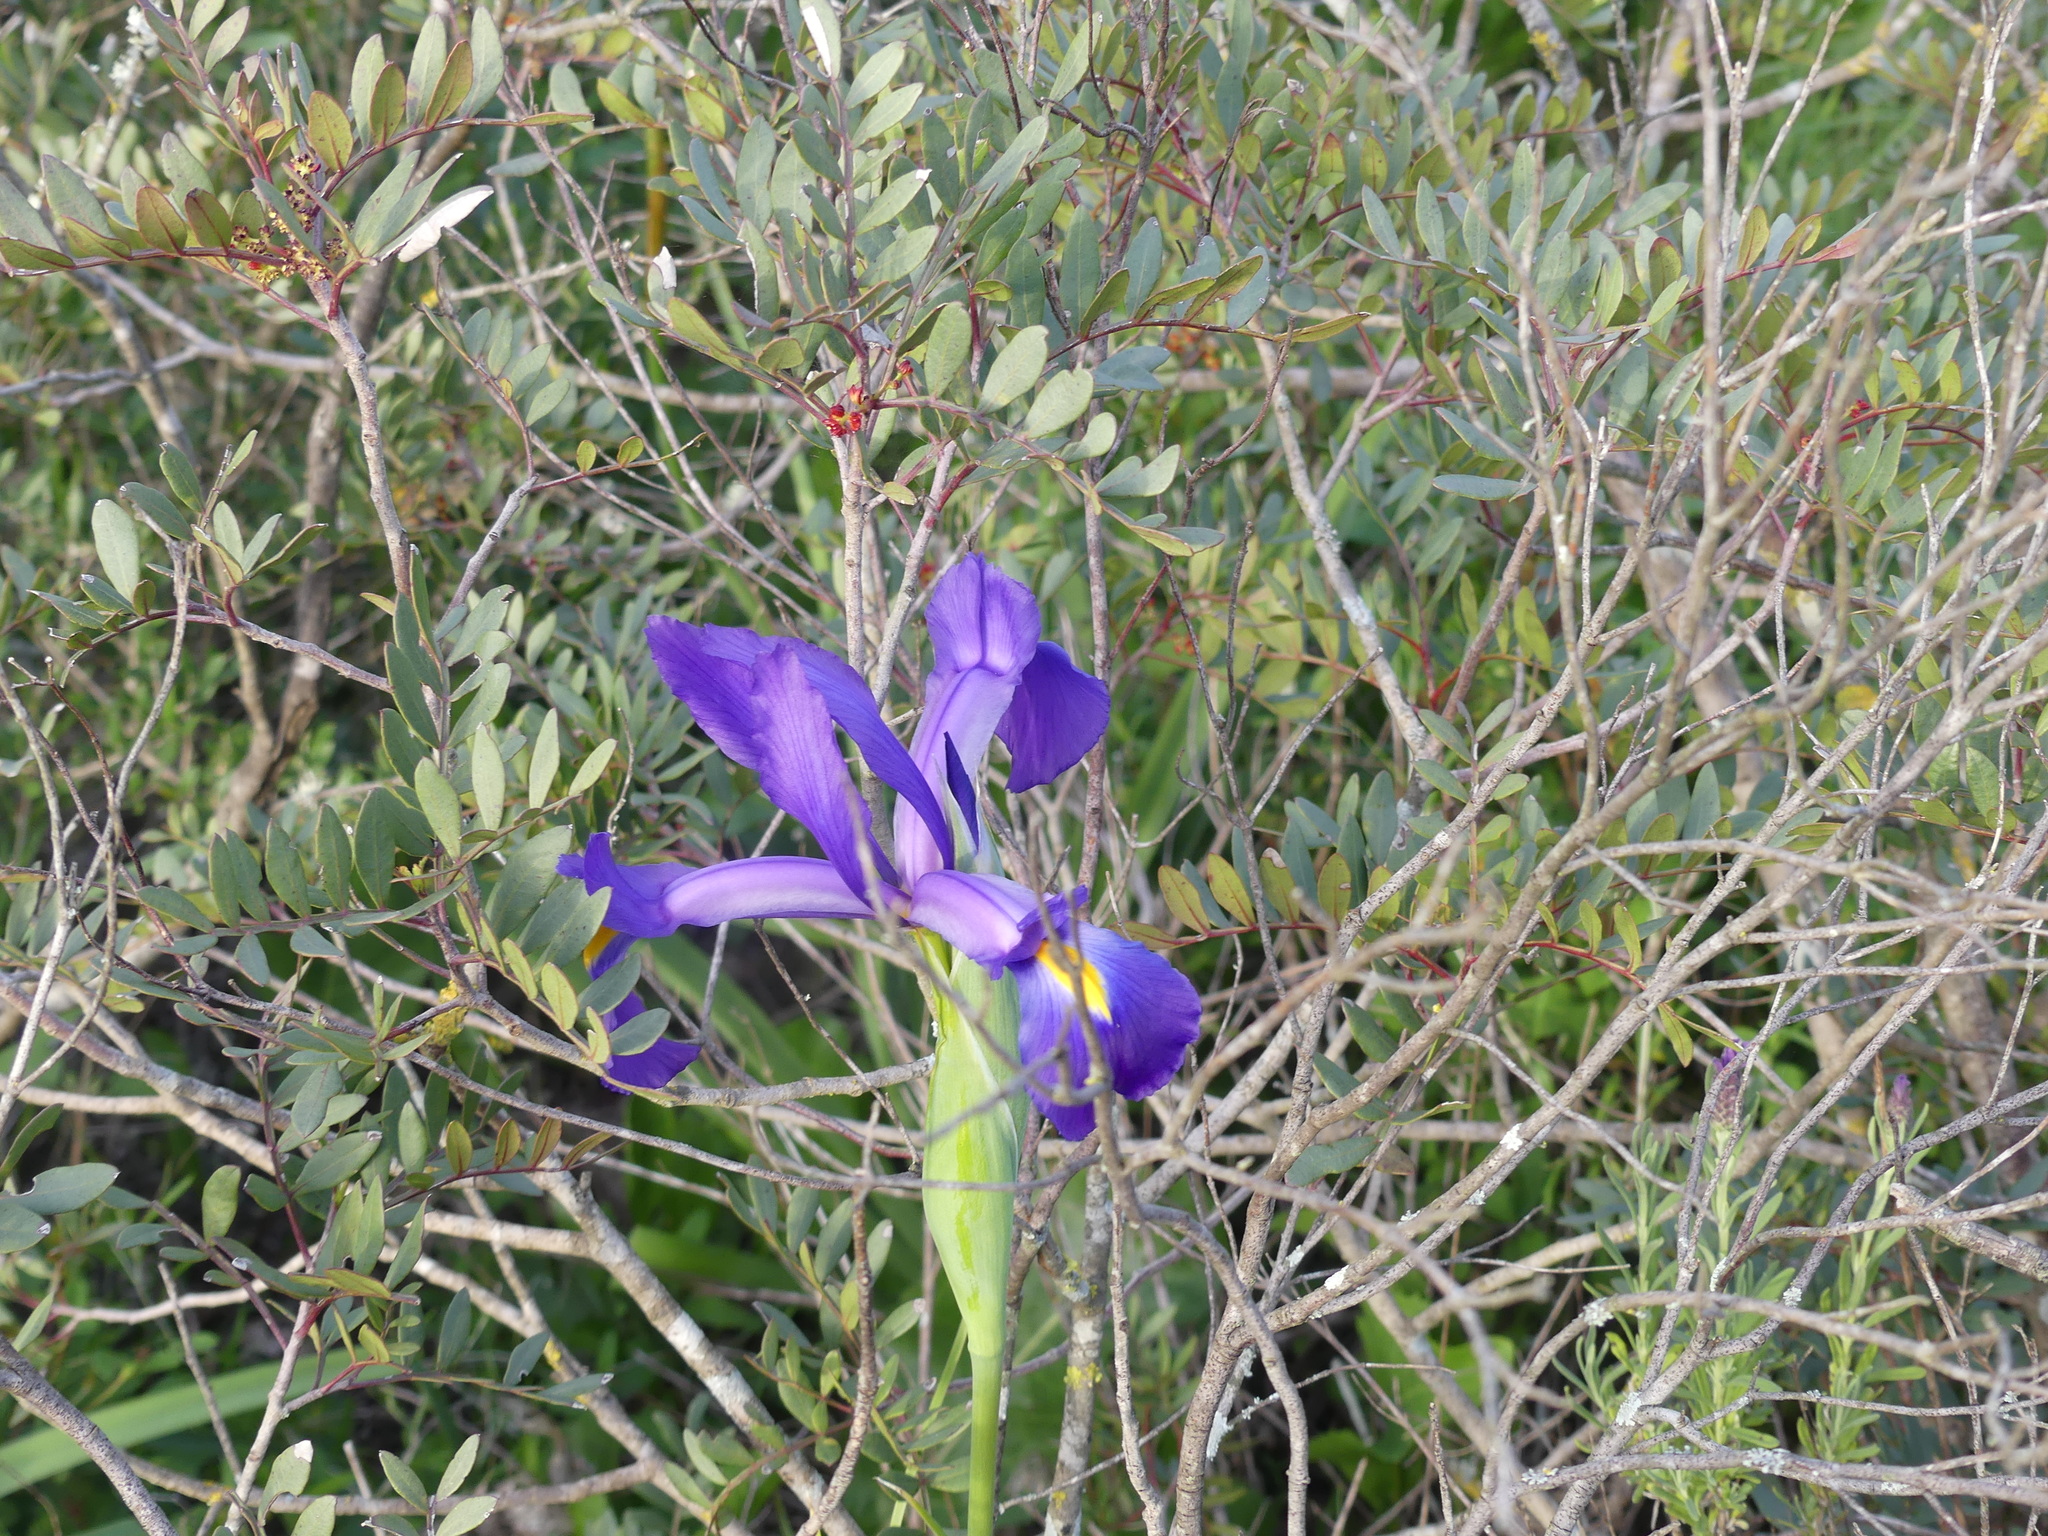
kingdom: Plantae
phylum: Tracheophyta
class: Liliopsida
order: Asparagales
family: Iridaceae
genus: Iris
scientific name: Iris tingitana
